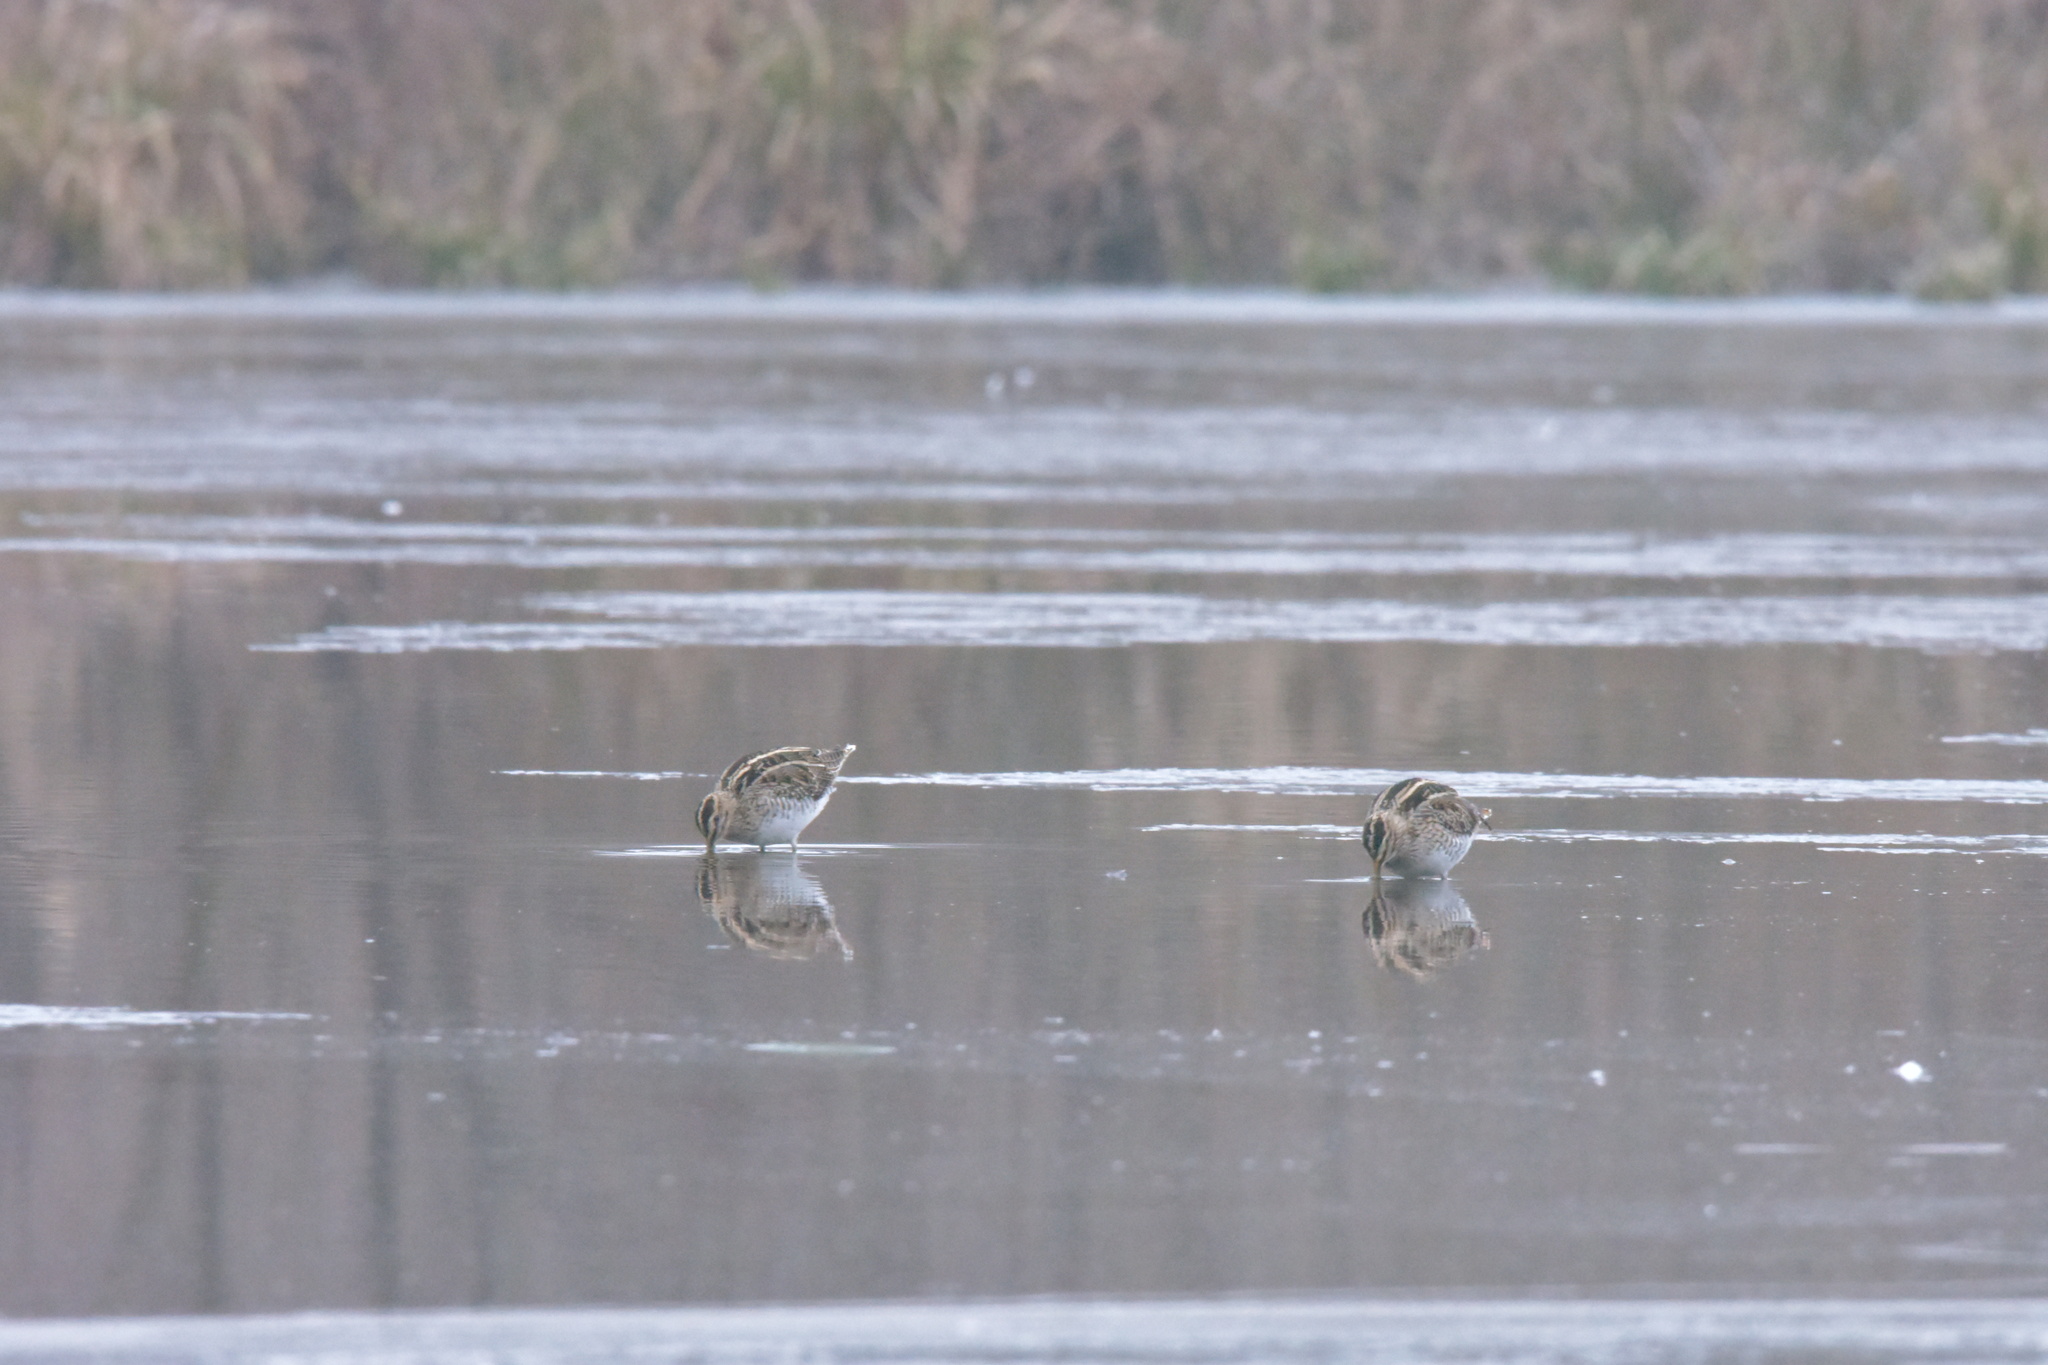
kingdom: Animalia
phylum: Chordata
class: Aves
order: Charadriiformes
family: Scolopacidae
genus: Gallinago
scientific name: Gallinago gallinago
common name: Common snipe
